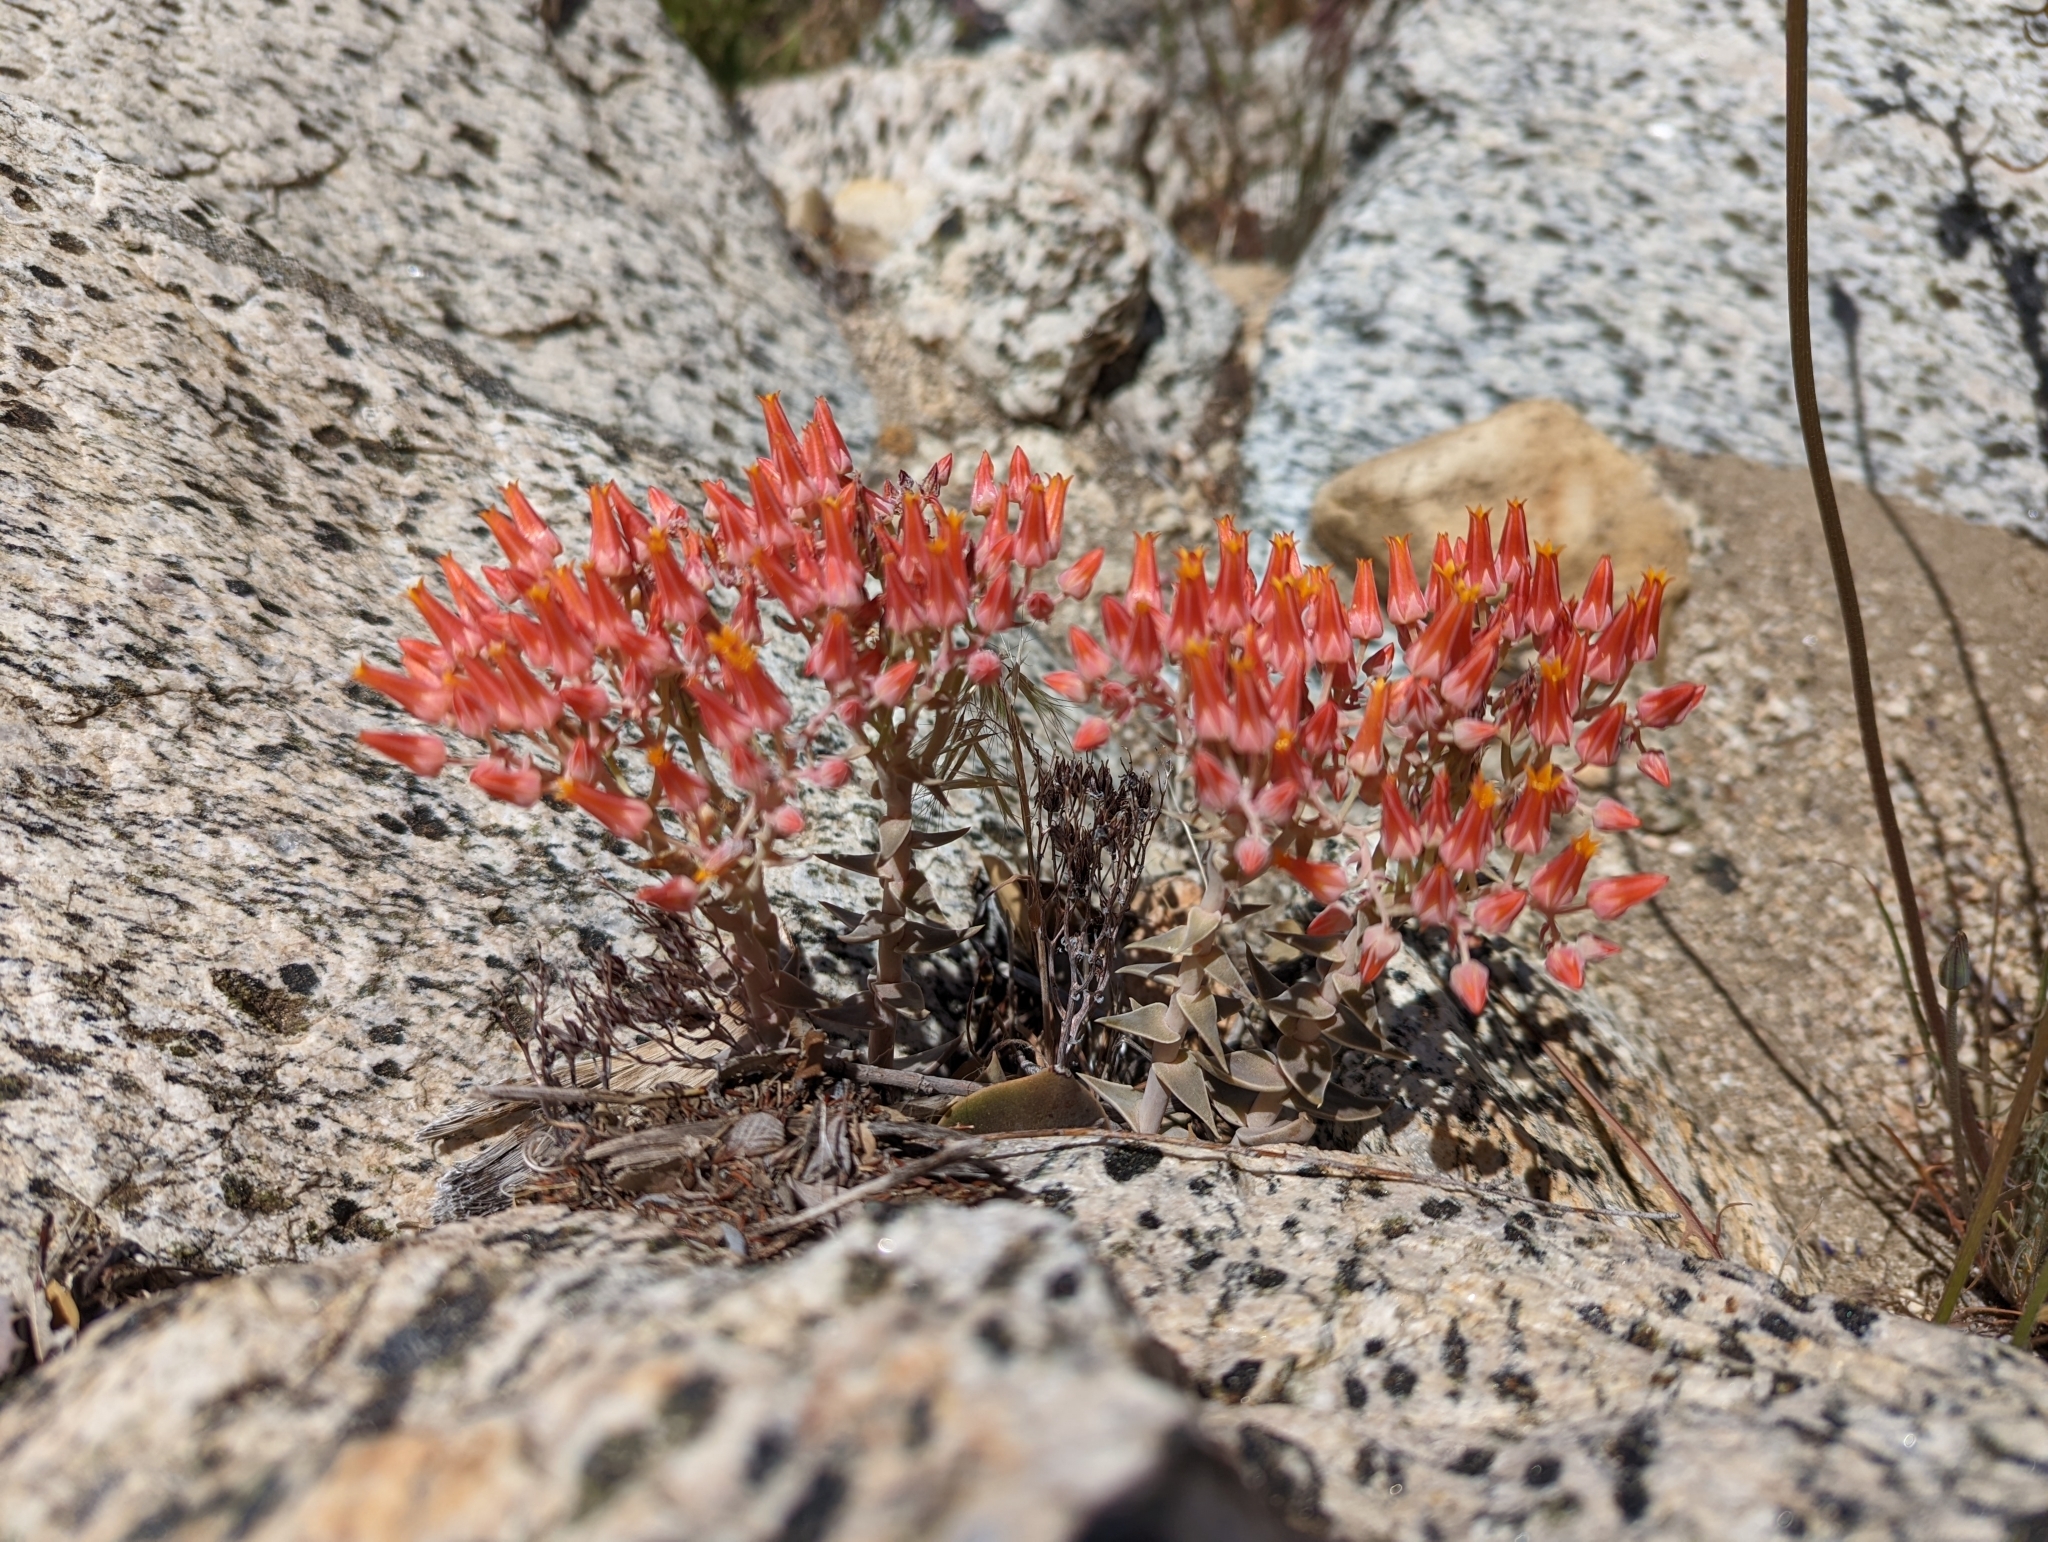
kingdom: Plantae
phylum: Tracheophyta
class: Magnoliopsida
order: Saxifragales
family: Crassulaceae
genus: Dudleya
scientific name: Dudleya cymosa
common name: Canyon dudleya
